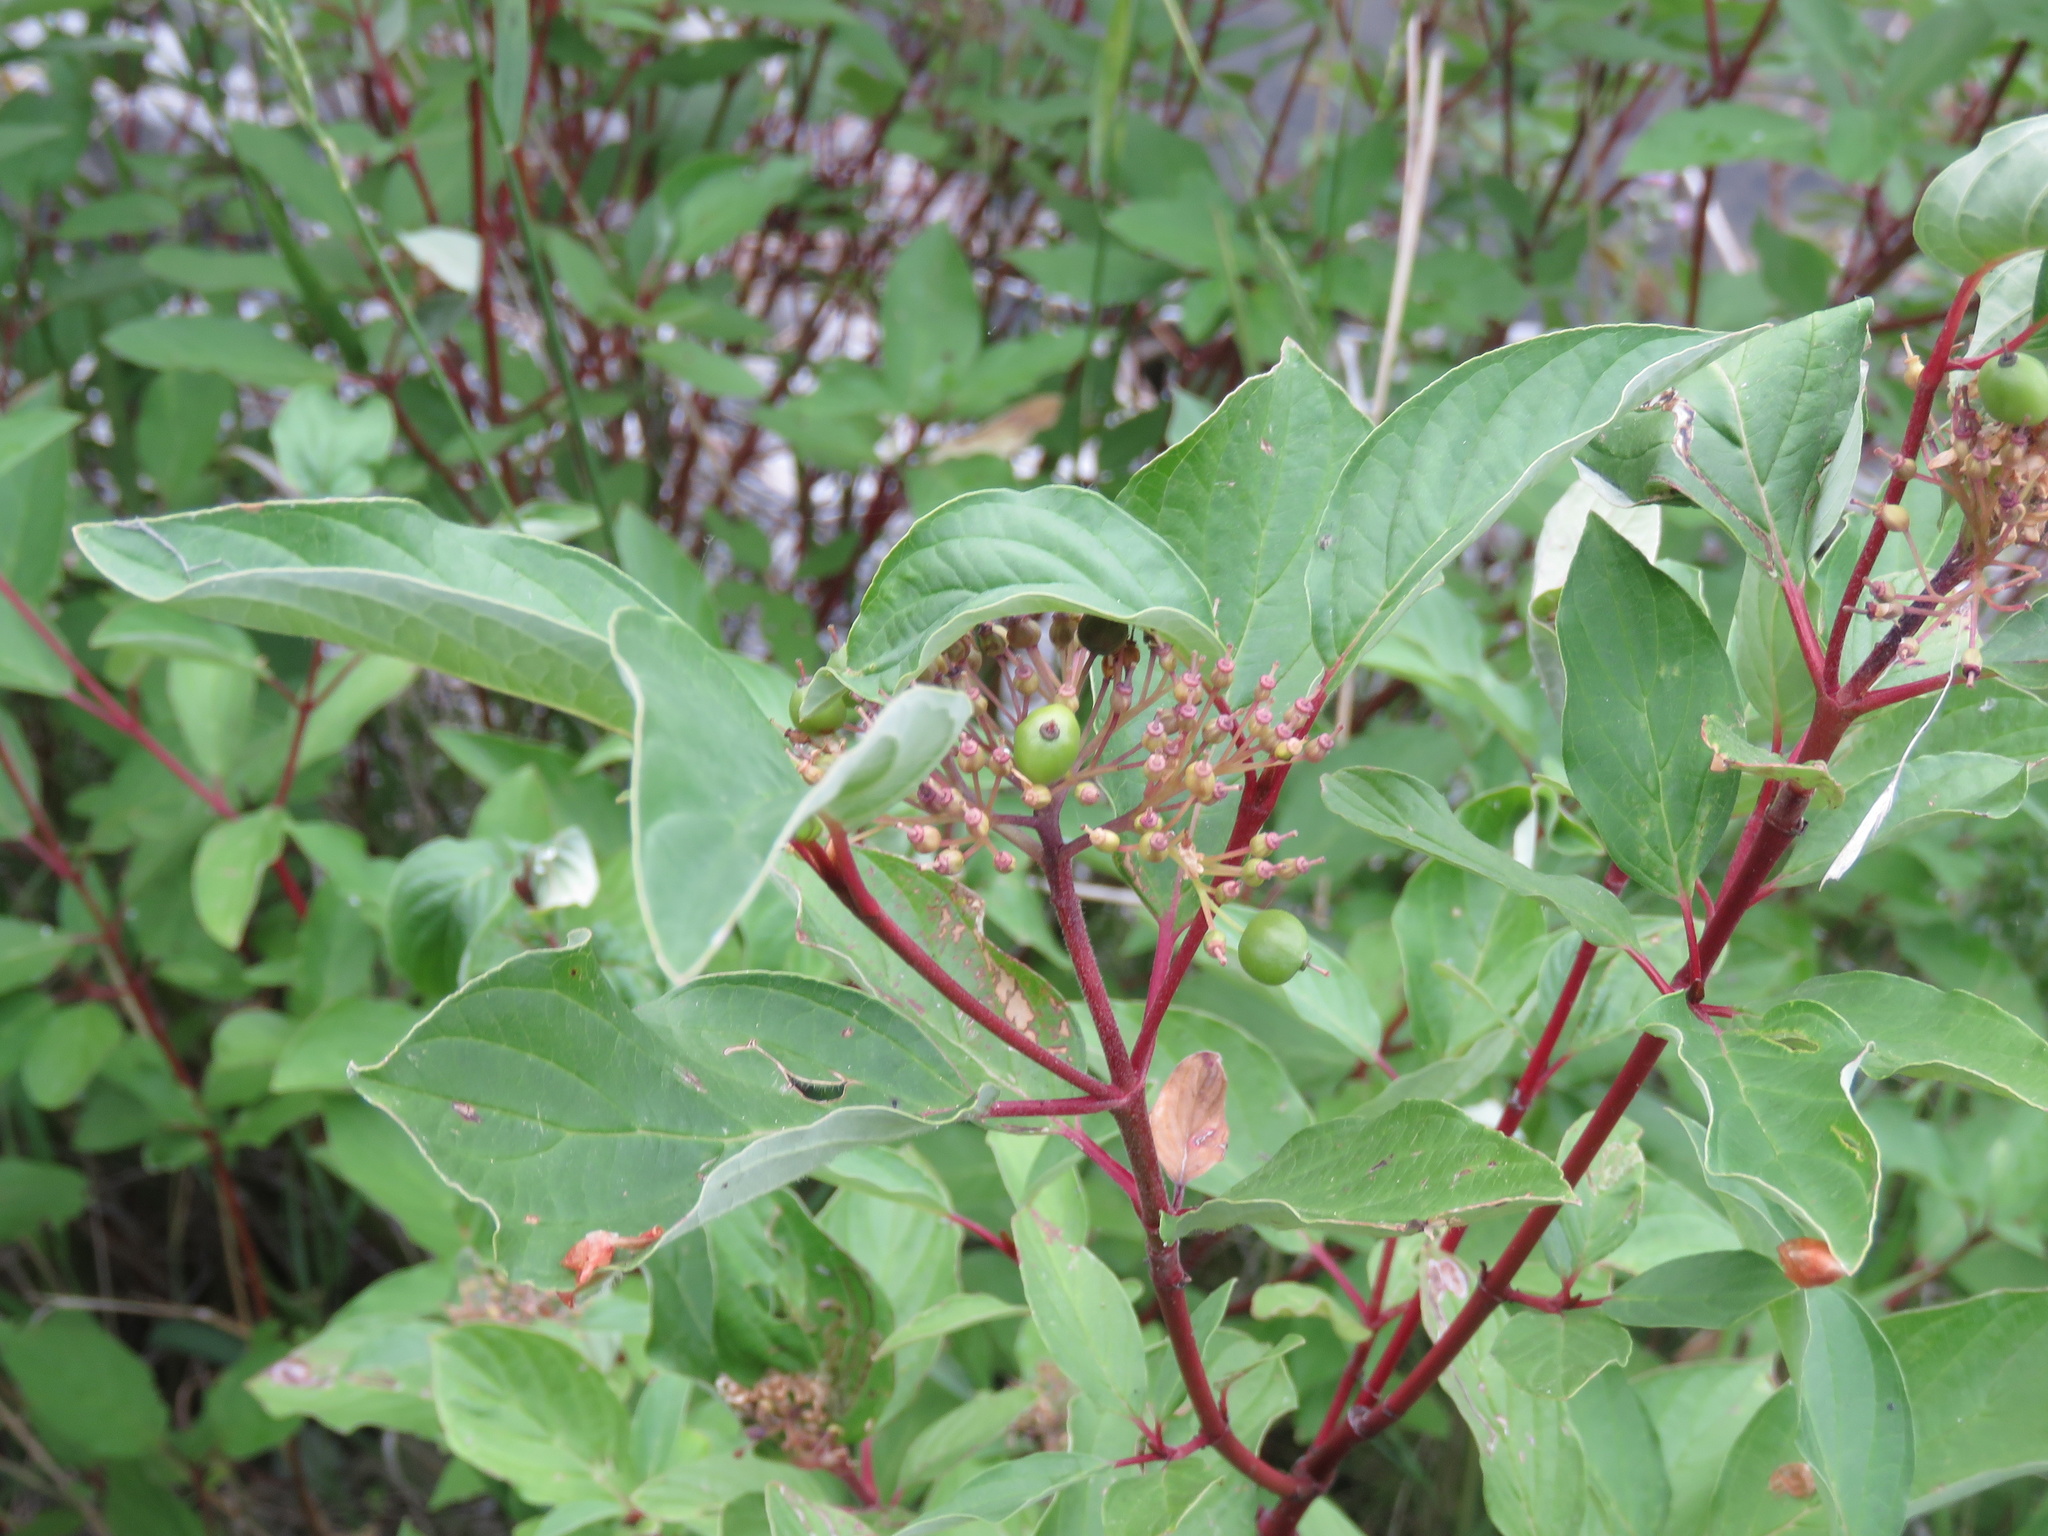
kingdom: Plantae
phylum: Tracheophyta
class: Magnoliopsida
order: Cornales
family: Cornaceae
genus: Cornus
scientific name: Cornus sericea
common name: Red-osier dogwood
